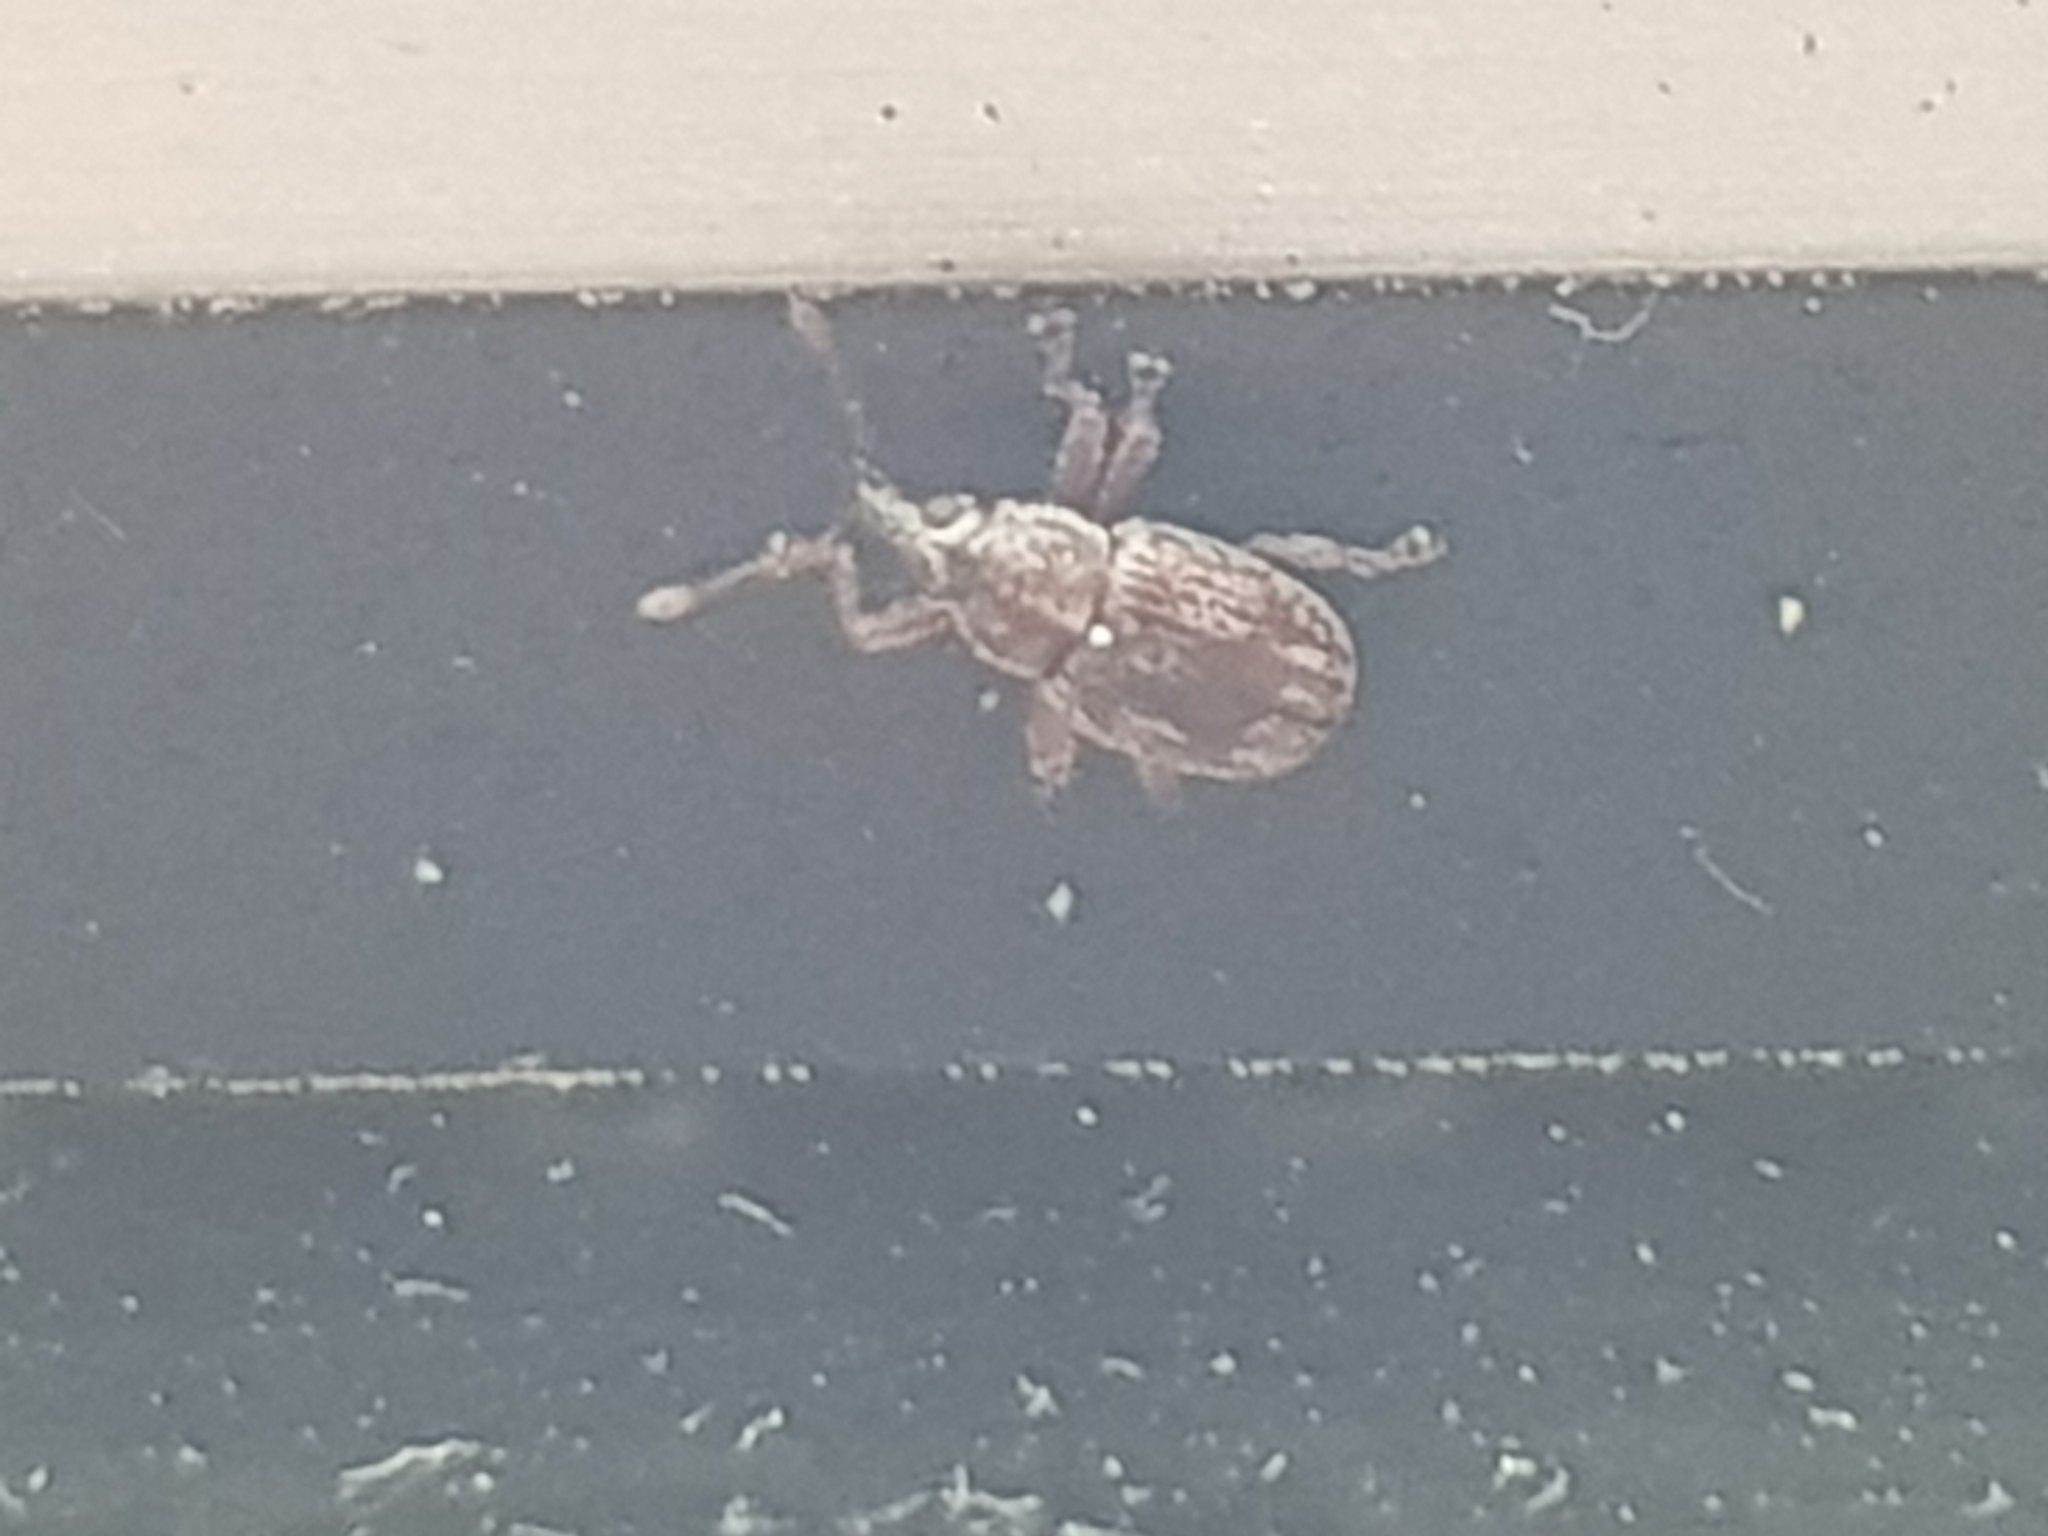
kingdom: Animalia
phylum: Arthropoda
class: Insecta
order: Coleoptera
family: Curculionidae
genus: Neomycta
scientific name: Neomycta rubida
